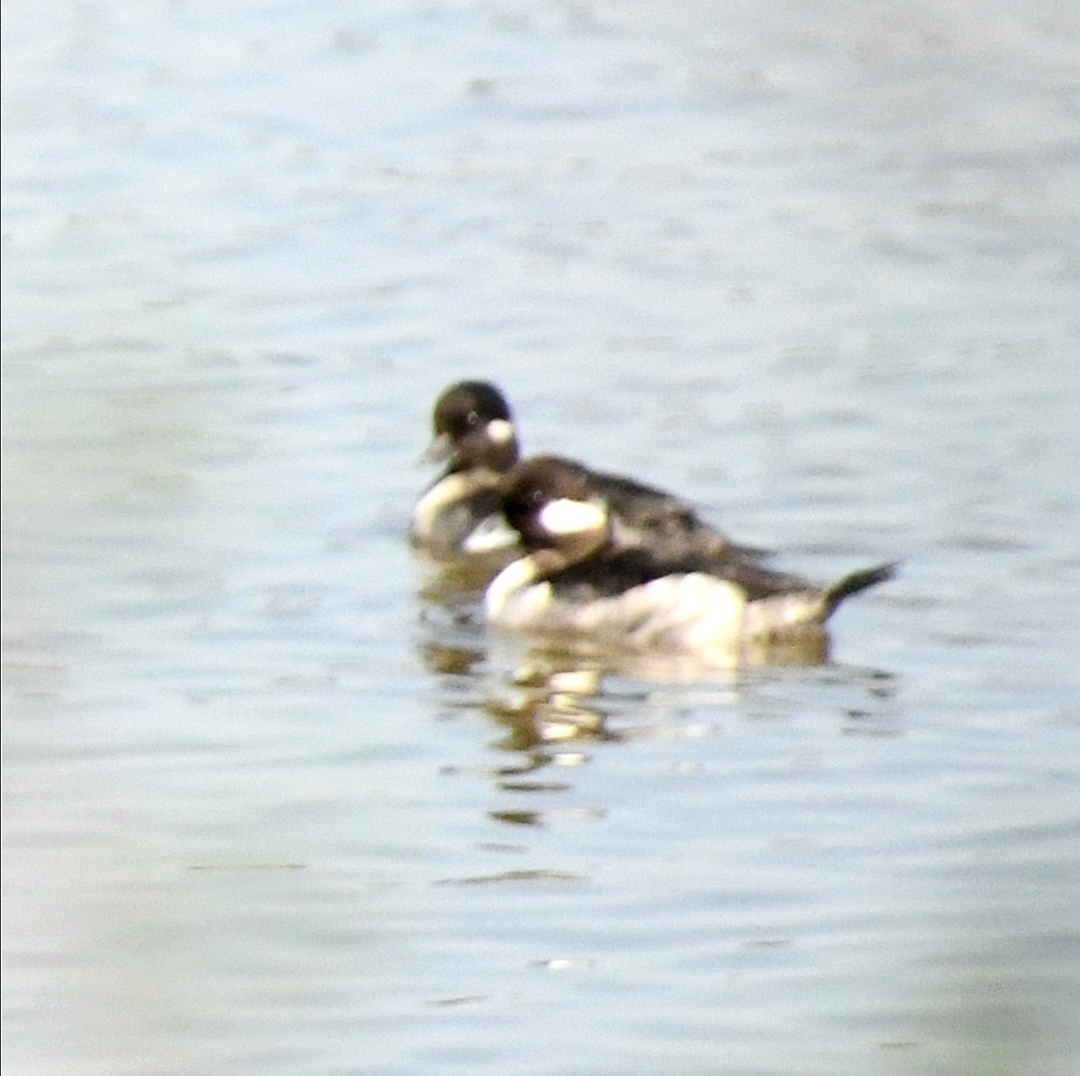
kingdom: Animalia
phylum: Chordata
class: Aves
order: Anseriformes
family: Anatidae
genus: Bucephala
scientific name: Bucephala albeola
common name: Bufflehead
